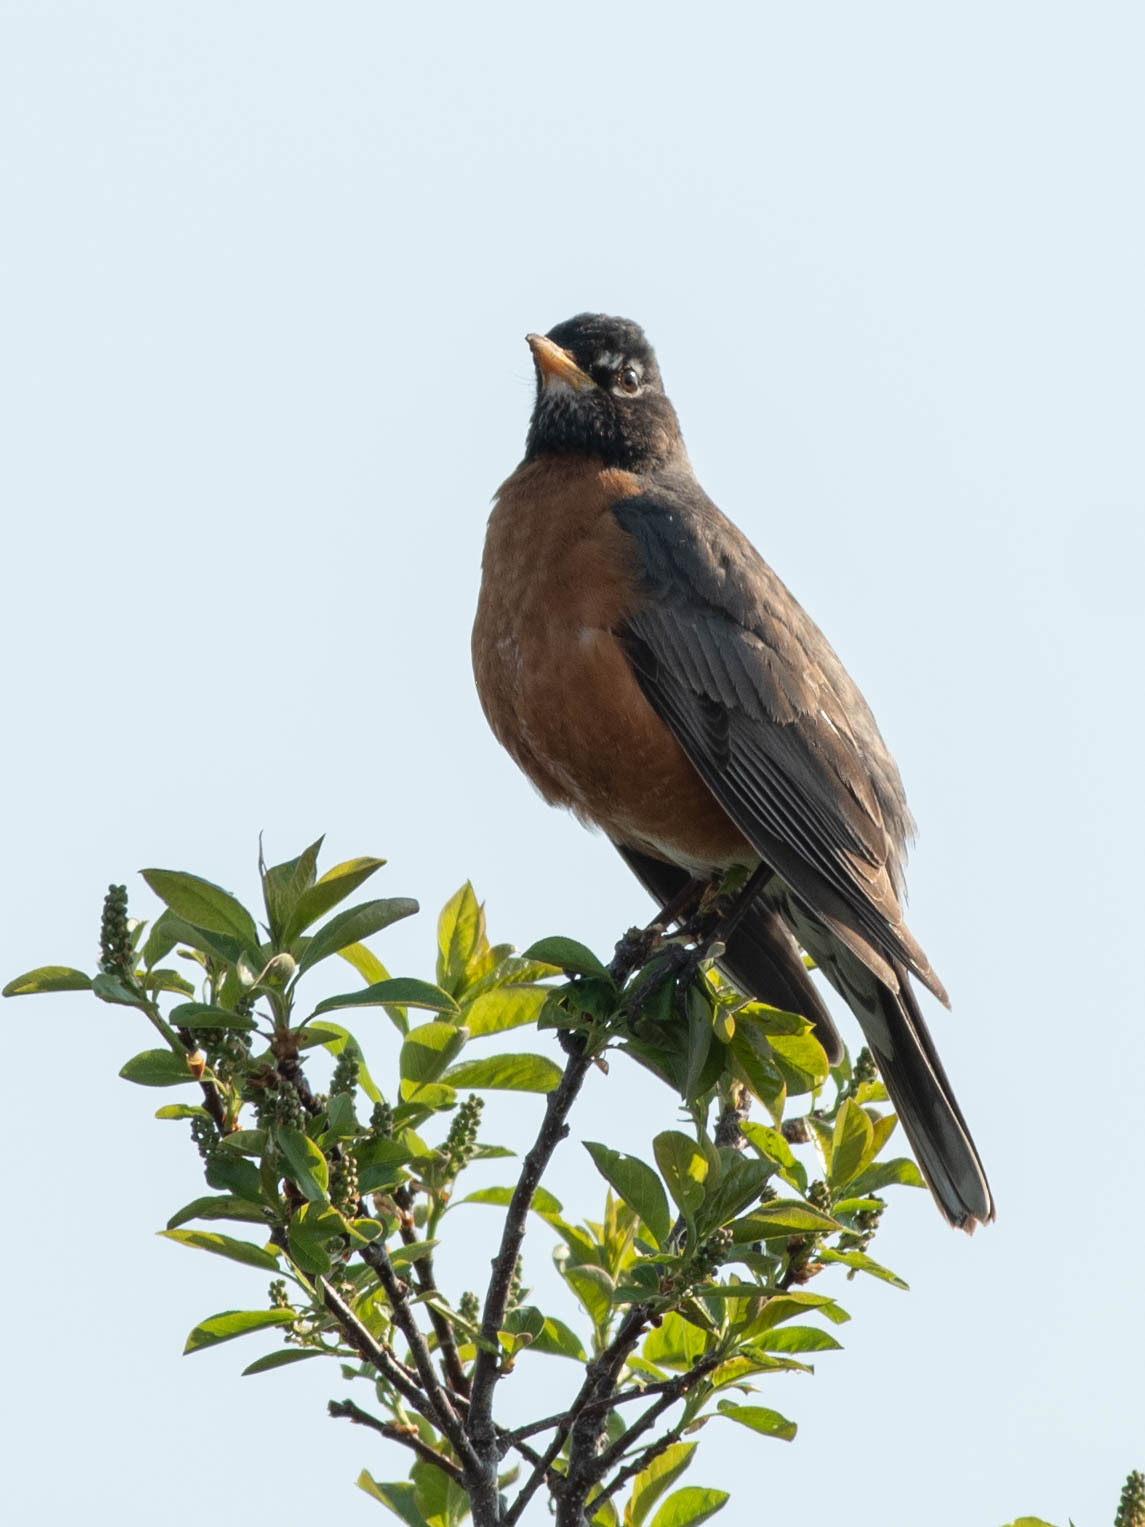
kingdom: Animalia
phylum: Chordata
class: Aves
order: Passeriformes
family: Turdidae
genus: Turdus
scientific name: Turdus migratorius
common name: American robin
